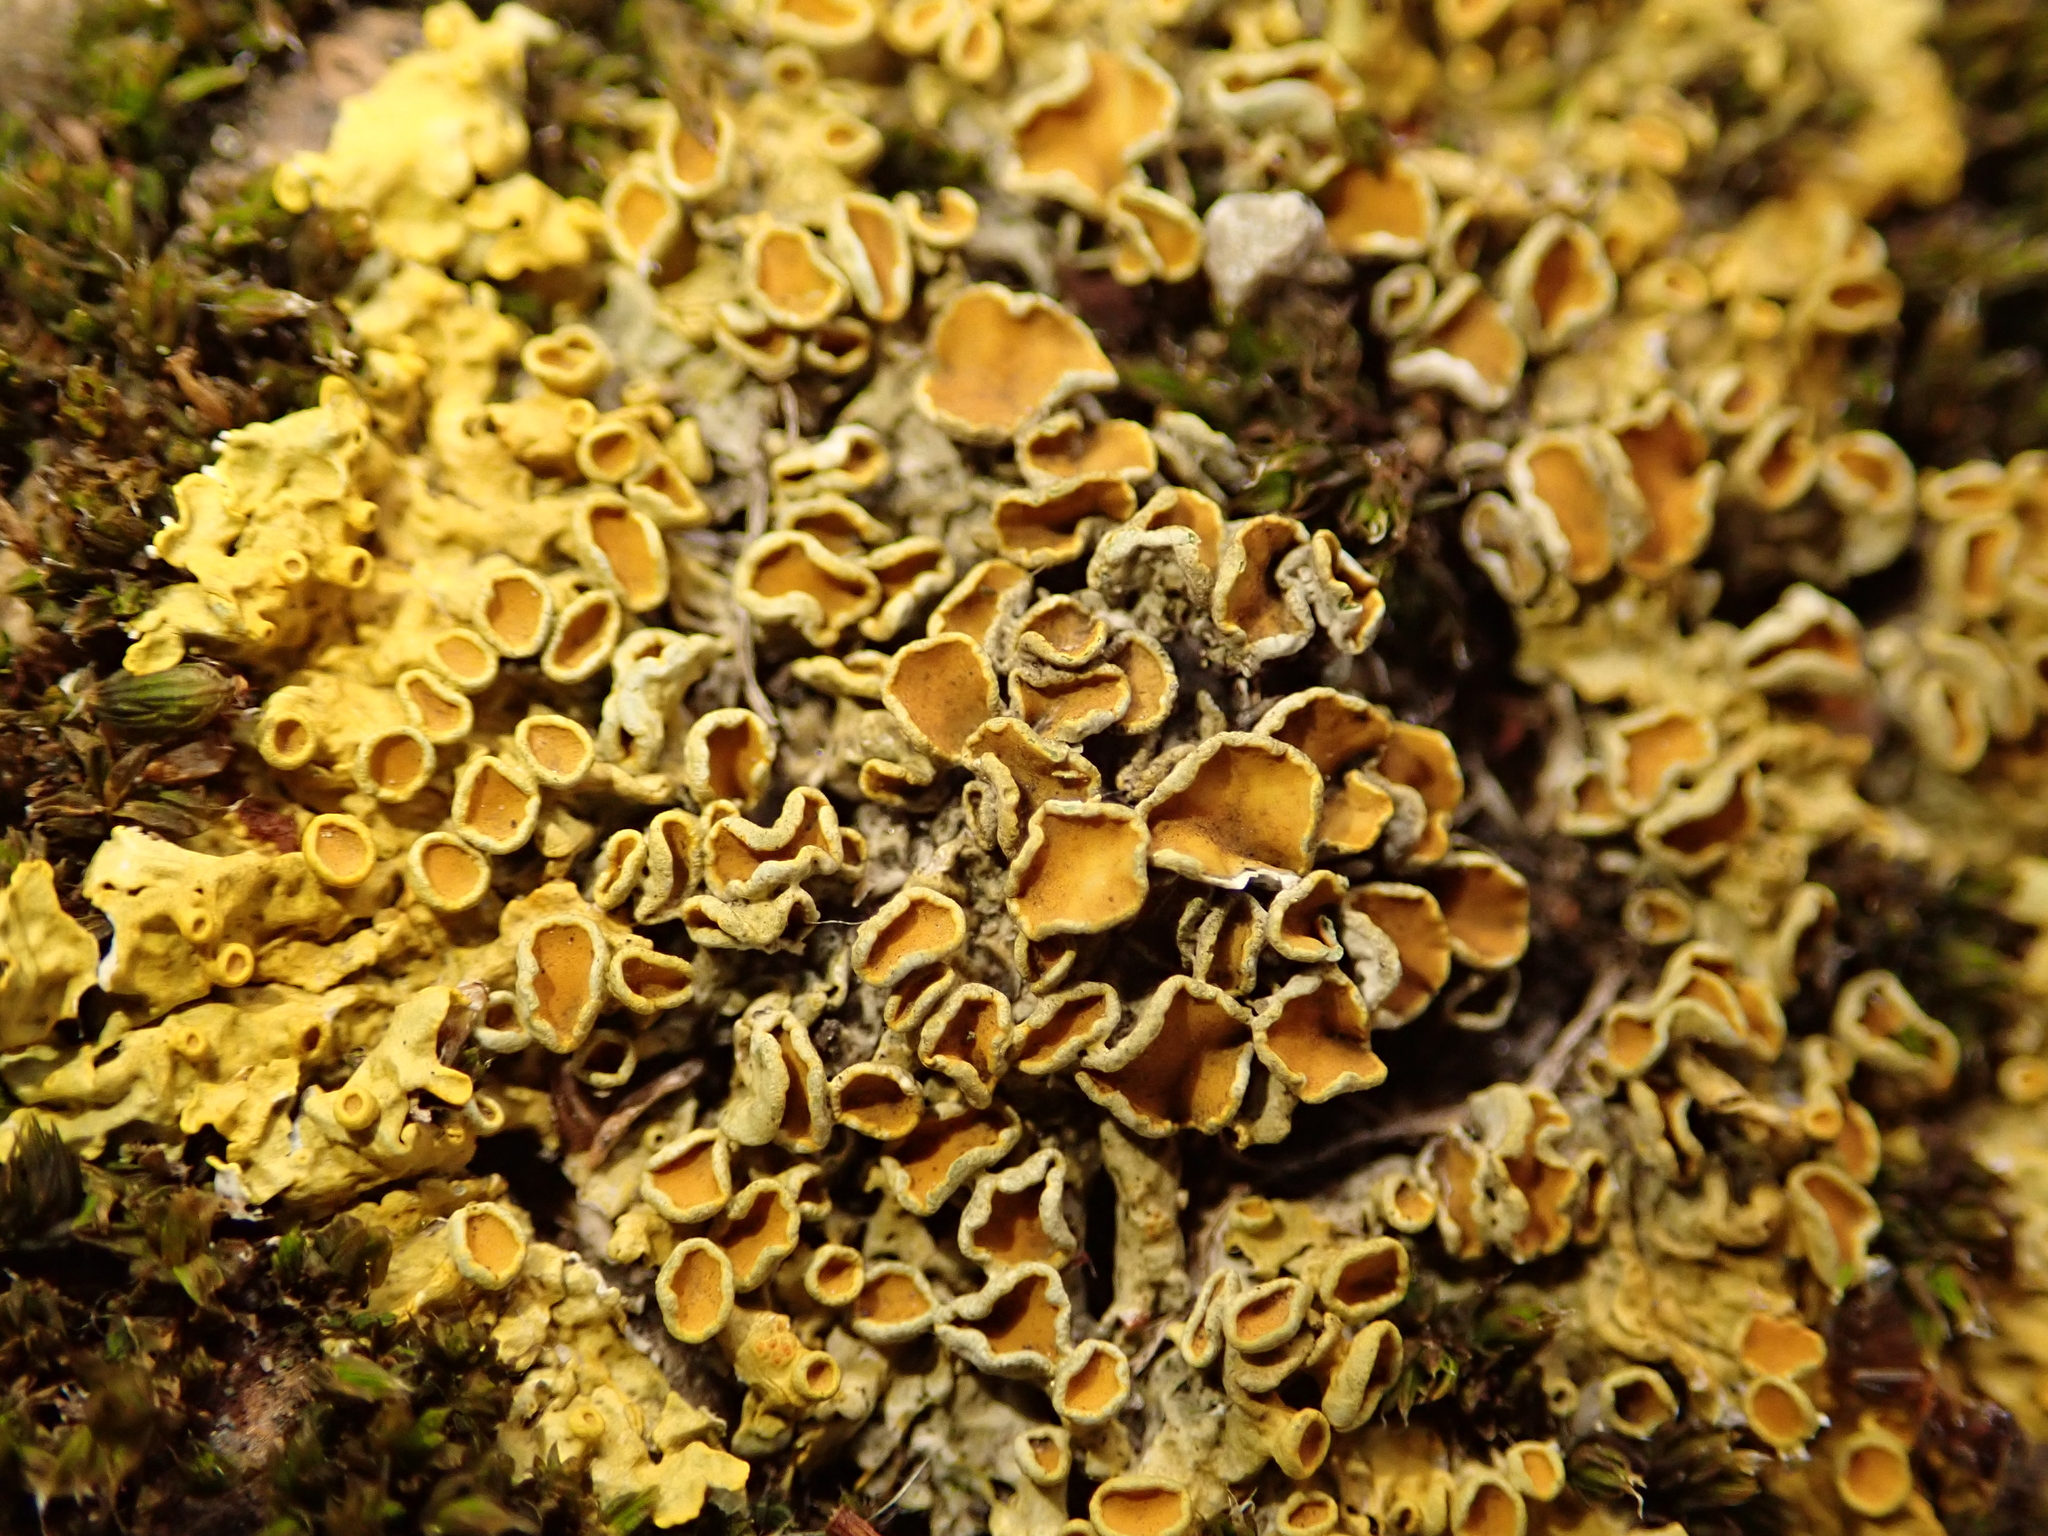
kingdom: Fungi
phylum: Ascomycota
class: Lecanoromycetes
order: Teloschistales
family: Teloschistaceae
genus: Xanthoria
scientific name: Xanthoria parietina
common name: Common orange lichen
